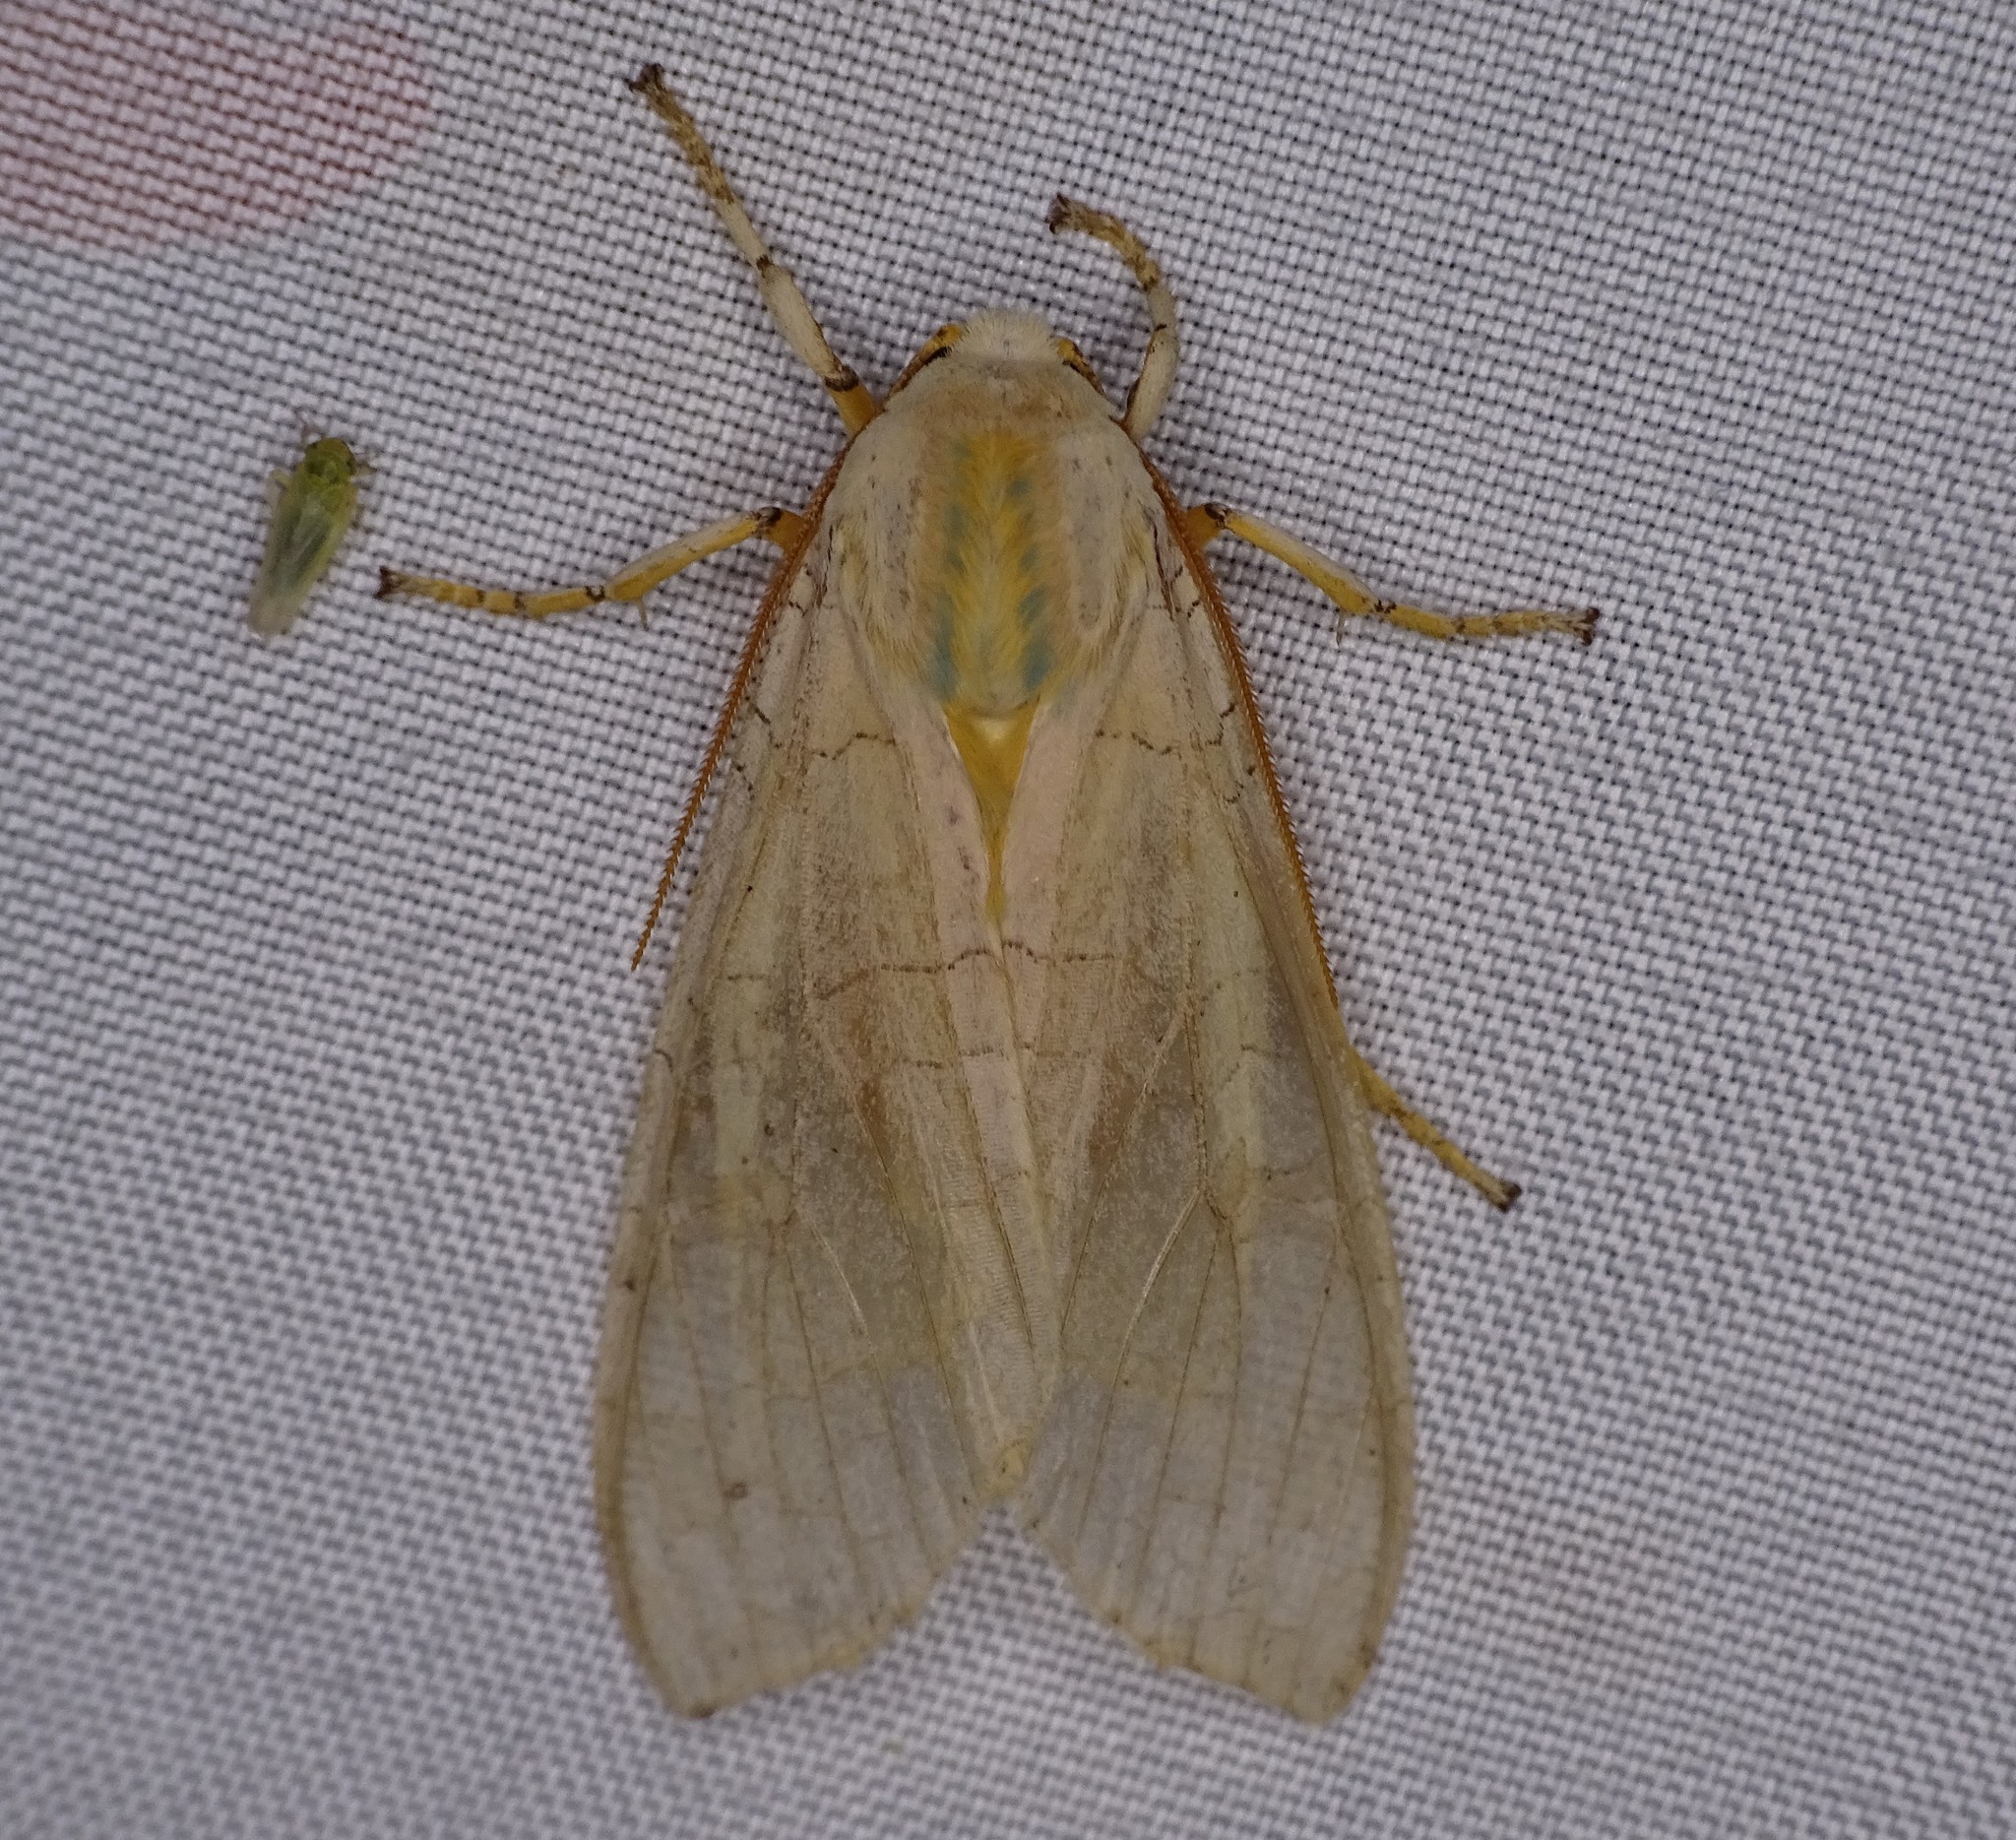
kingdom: Animalia
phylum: Arthropoda
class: Insecta
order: Lepidoptera
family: Erebidae
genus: Halysidota
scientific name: Halysidota
